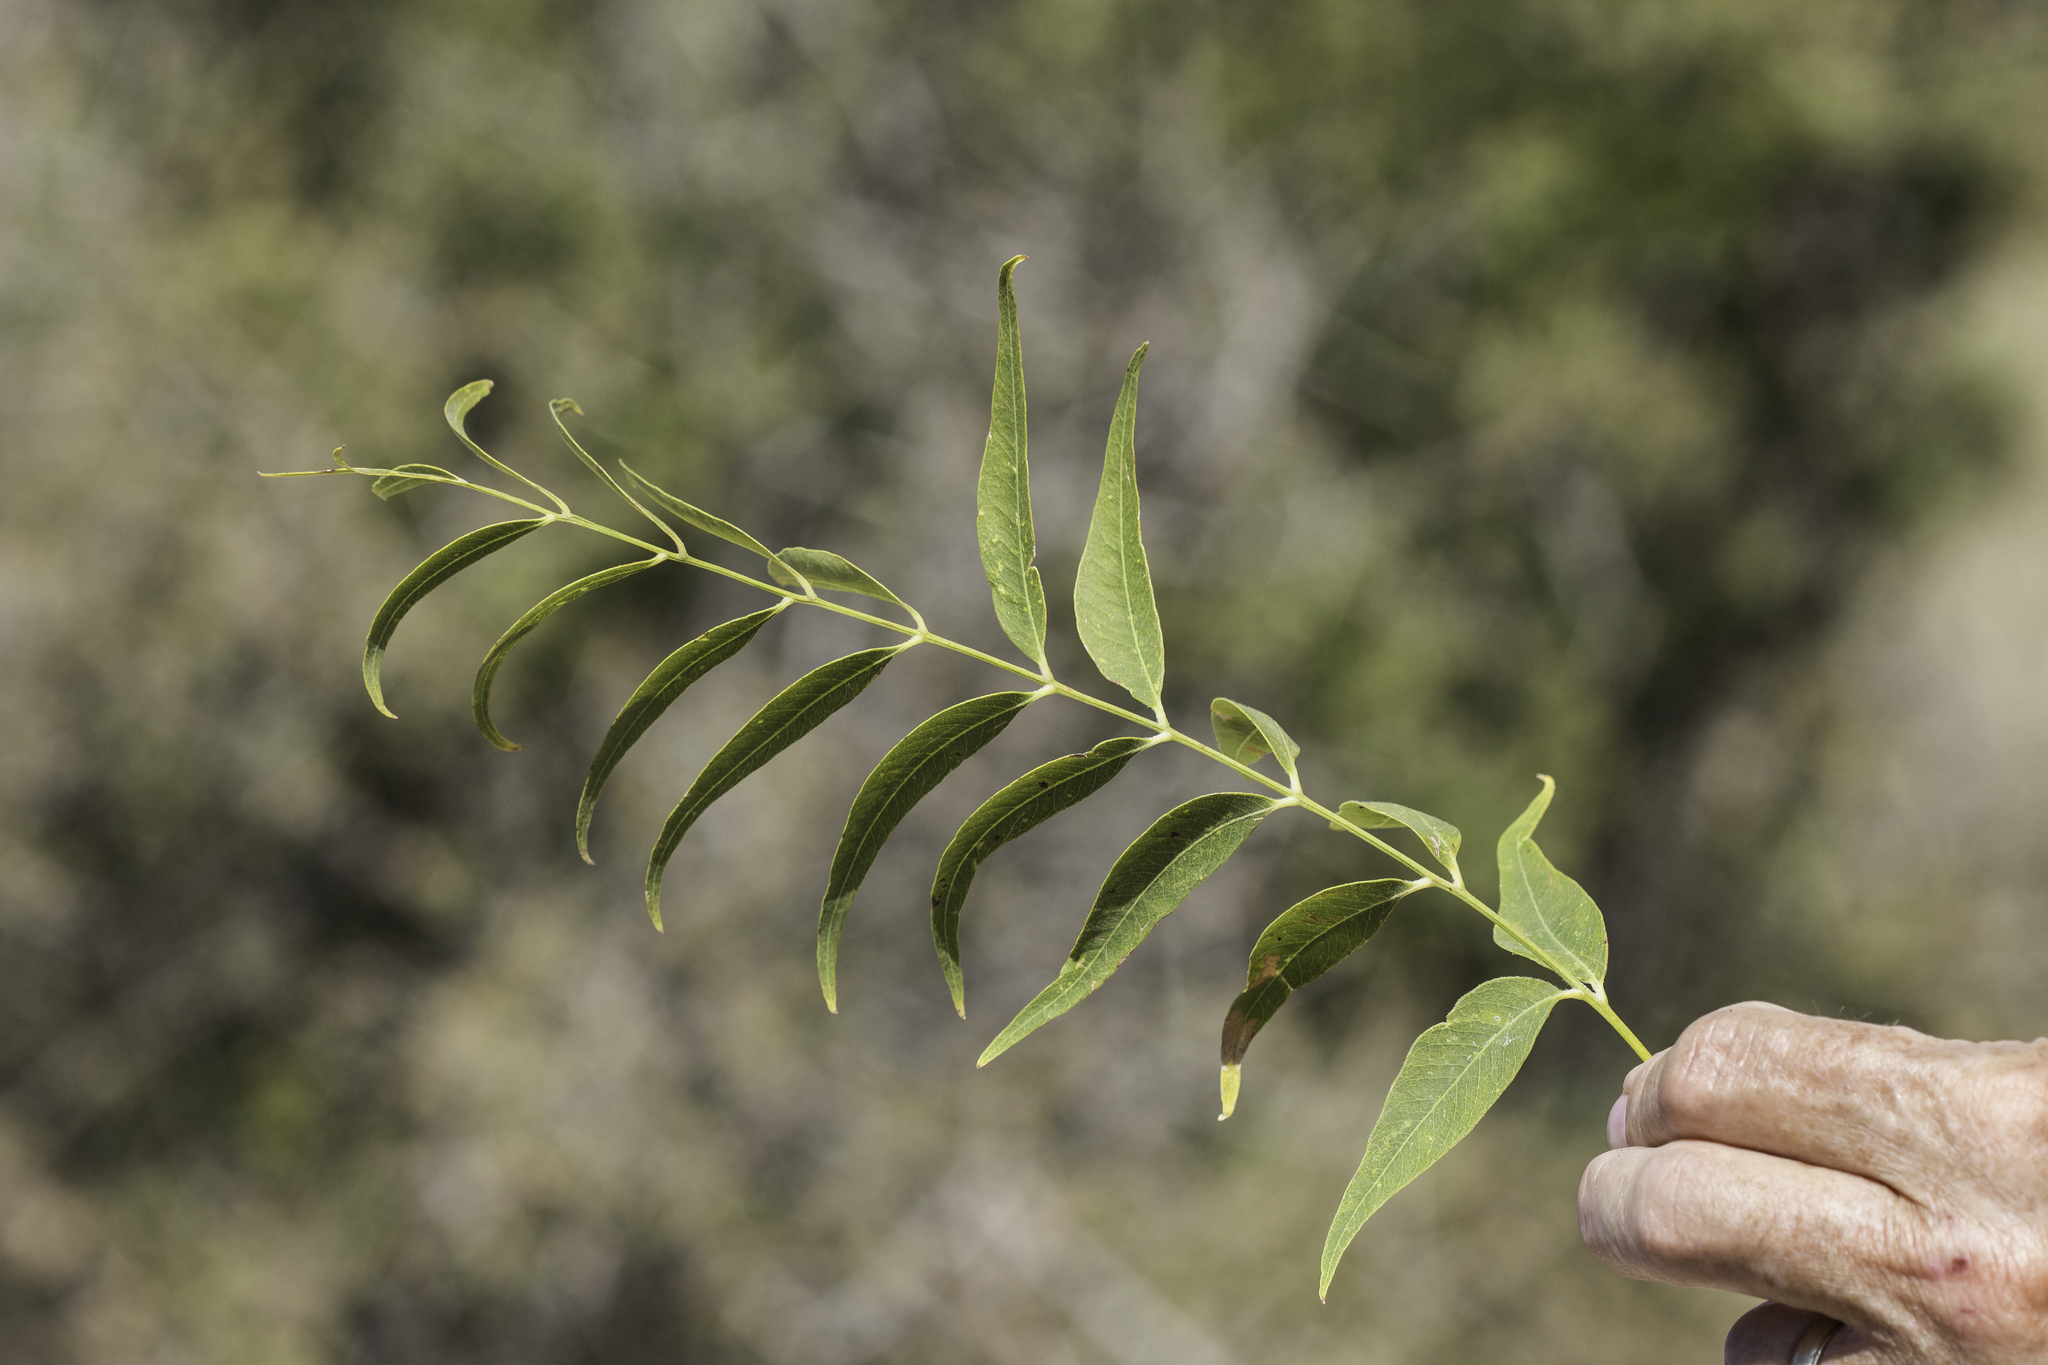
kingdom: Plantae
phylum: Tracheophyta
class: Magnoliopsida
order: Sapindales
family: Sapindaceae
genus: Sapindus
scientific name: Sapindus drummondii
